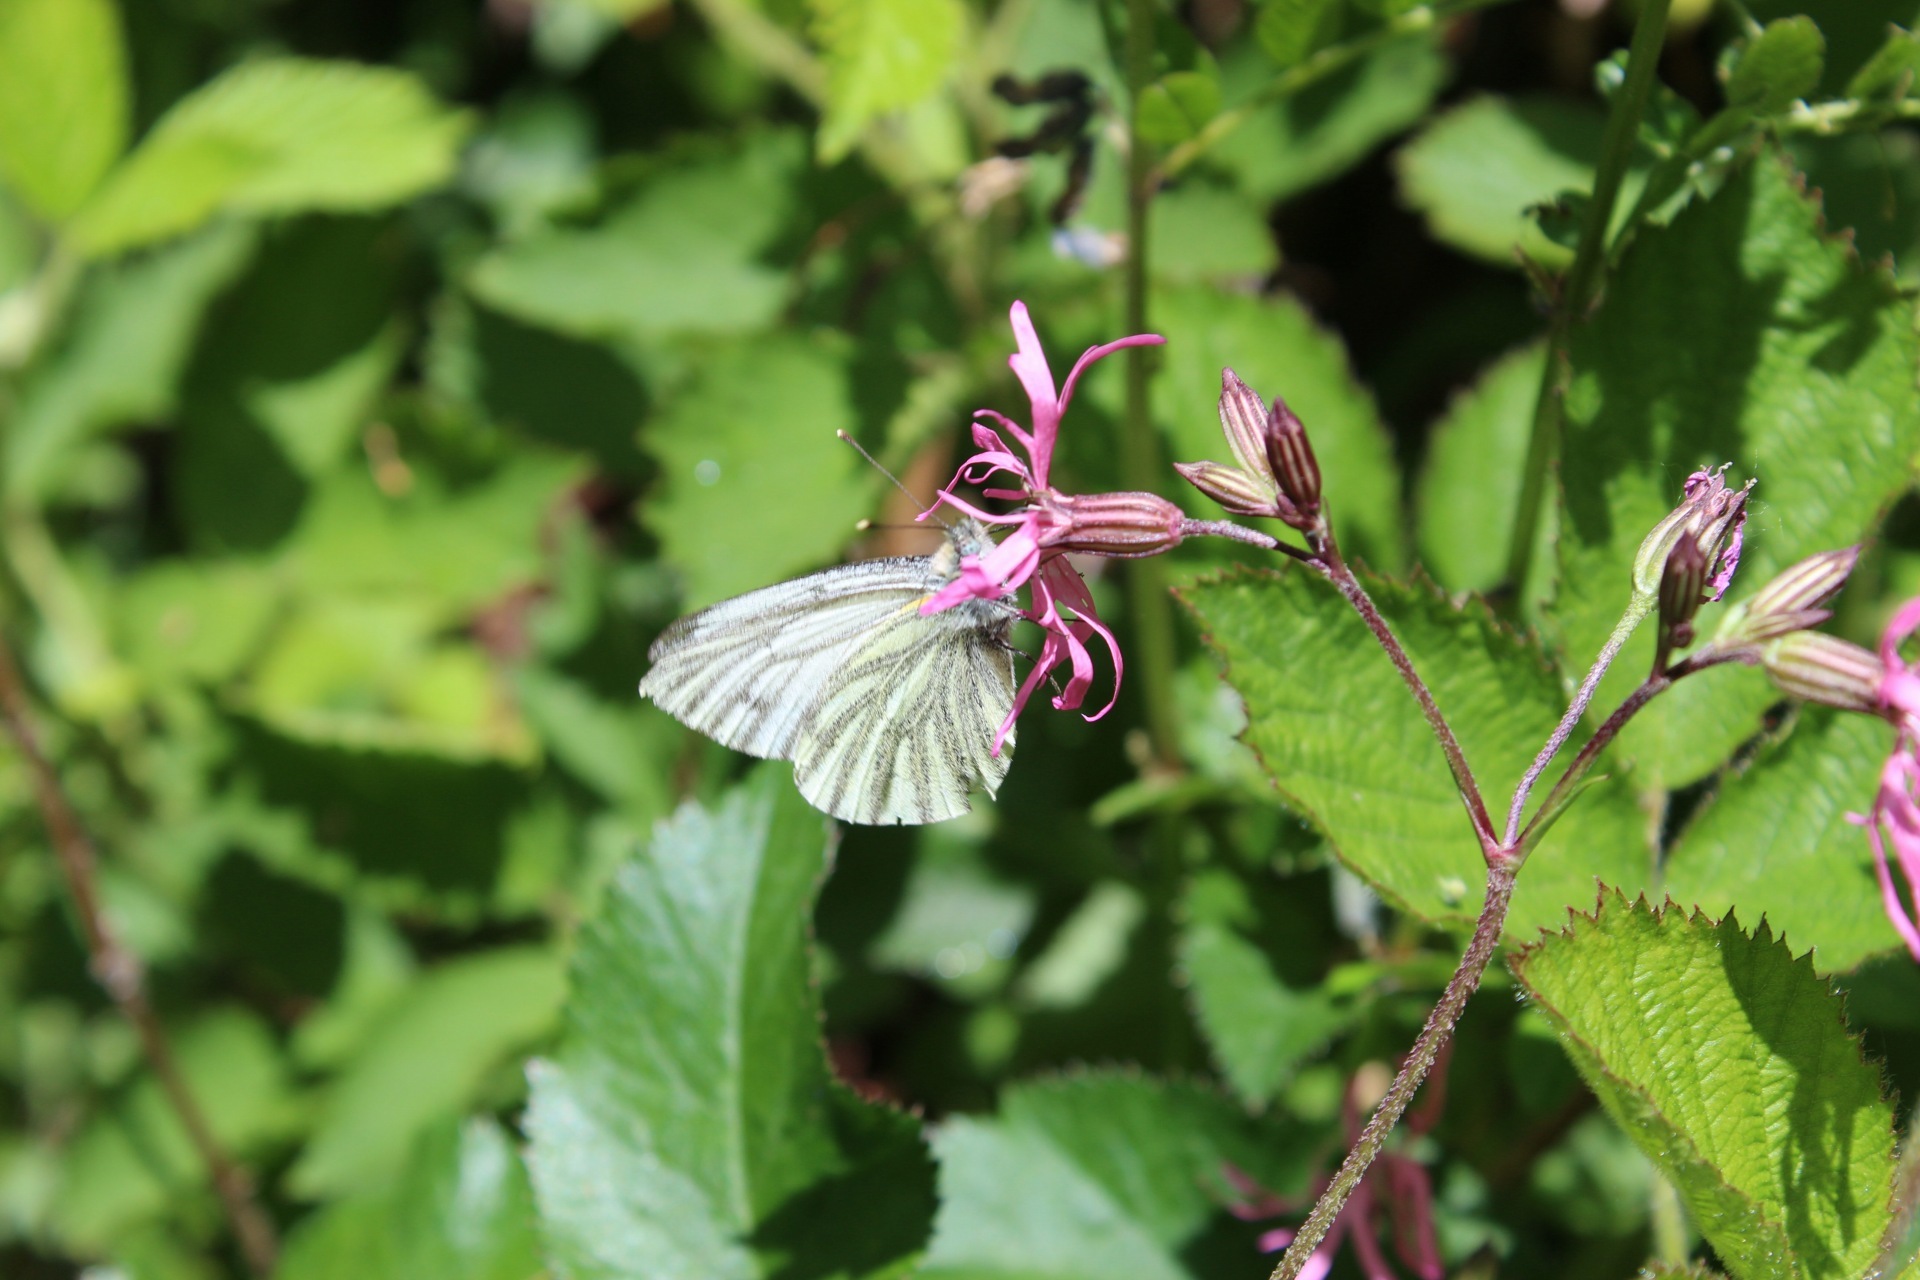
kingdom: Animalia
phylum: Arthropoda
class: Insecta
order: Lepidoptera
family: Pieridae
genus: Pieris
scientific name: Pieris napi
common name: Green-veined white
